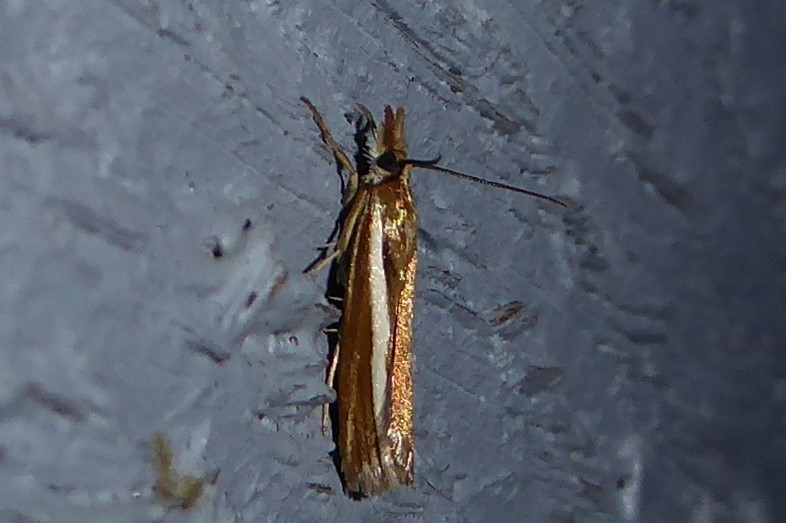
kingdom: Animalia
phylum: Arthropoda
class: Insecta
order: Lepidoptera
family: Crambidae
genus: Orocrambus
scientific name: Orocrambus aethonellus
